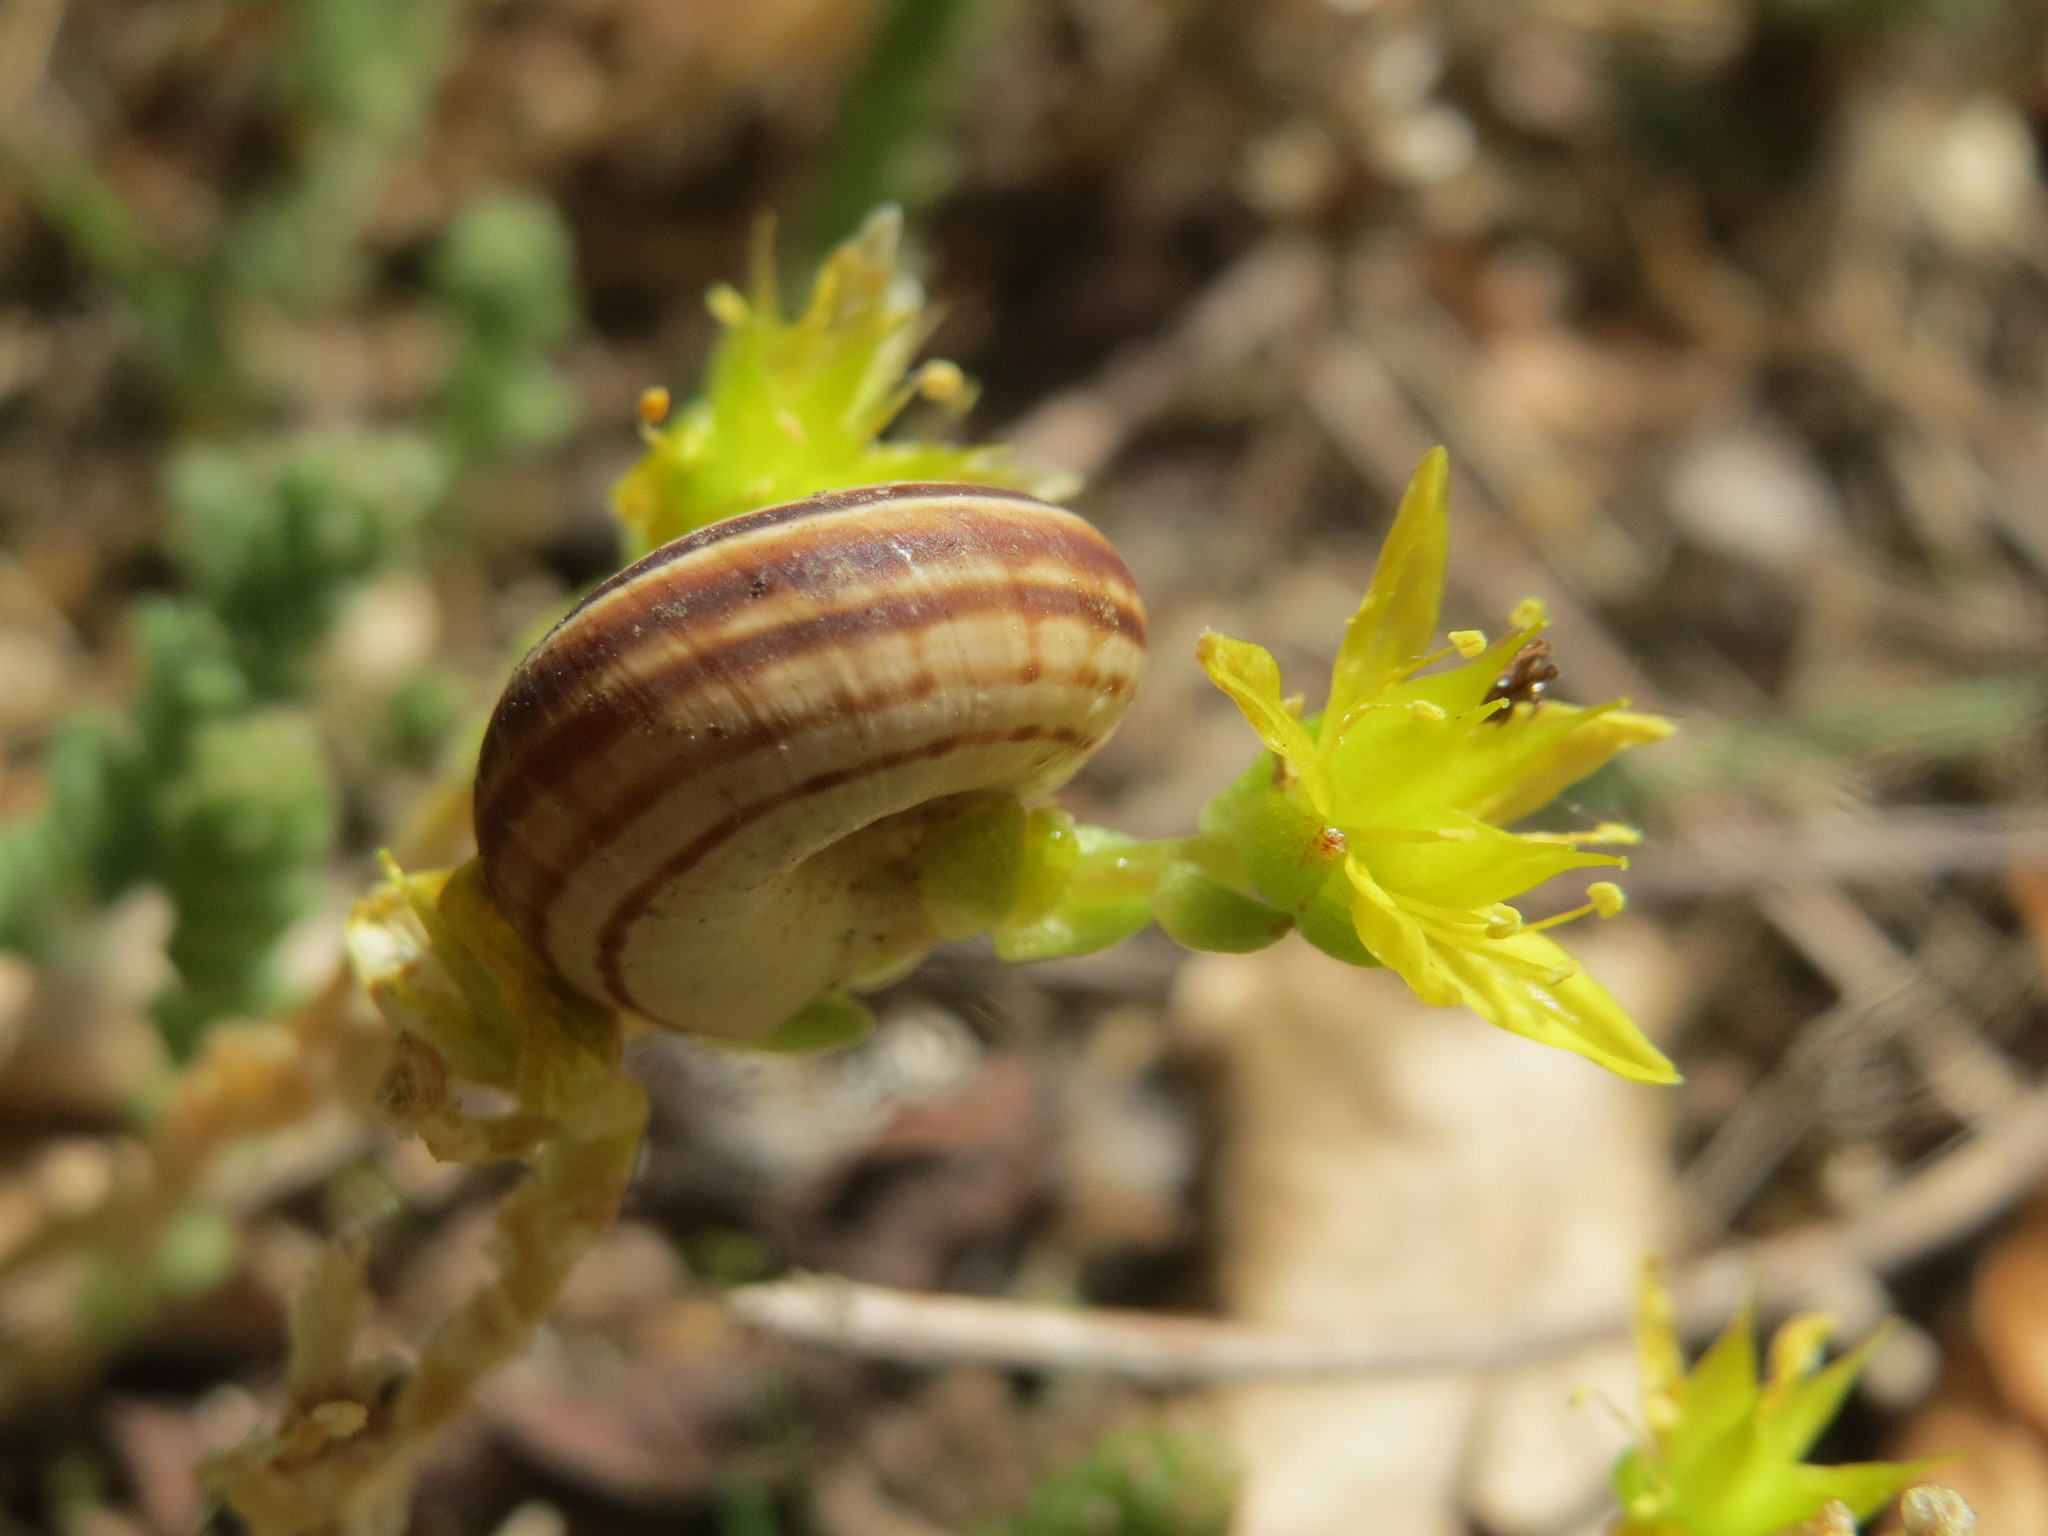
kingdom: Plantae
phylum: Tracheophyta
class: Magnoliopsida
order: Saxifragales
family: Crassulaceae
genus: Sedum
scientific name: Sedum acre
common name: Biting stonecrop
